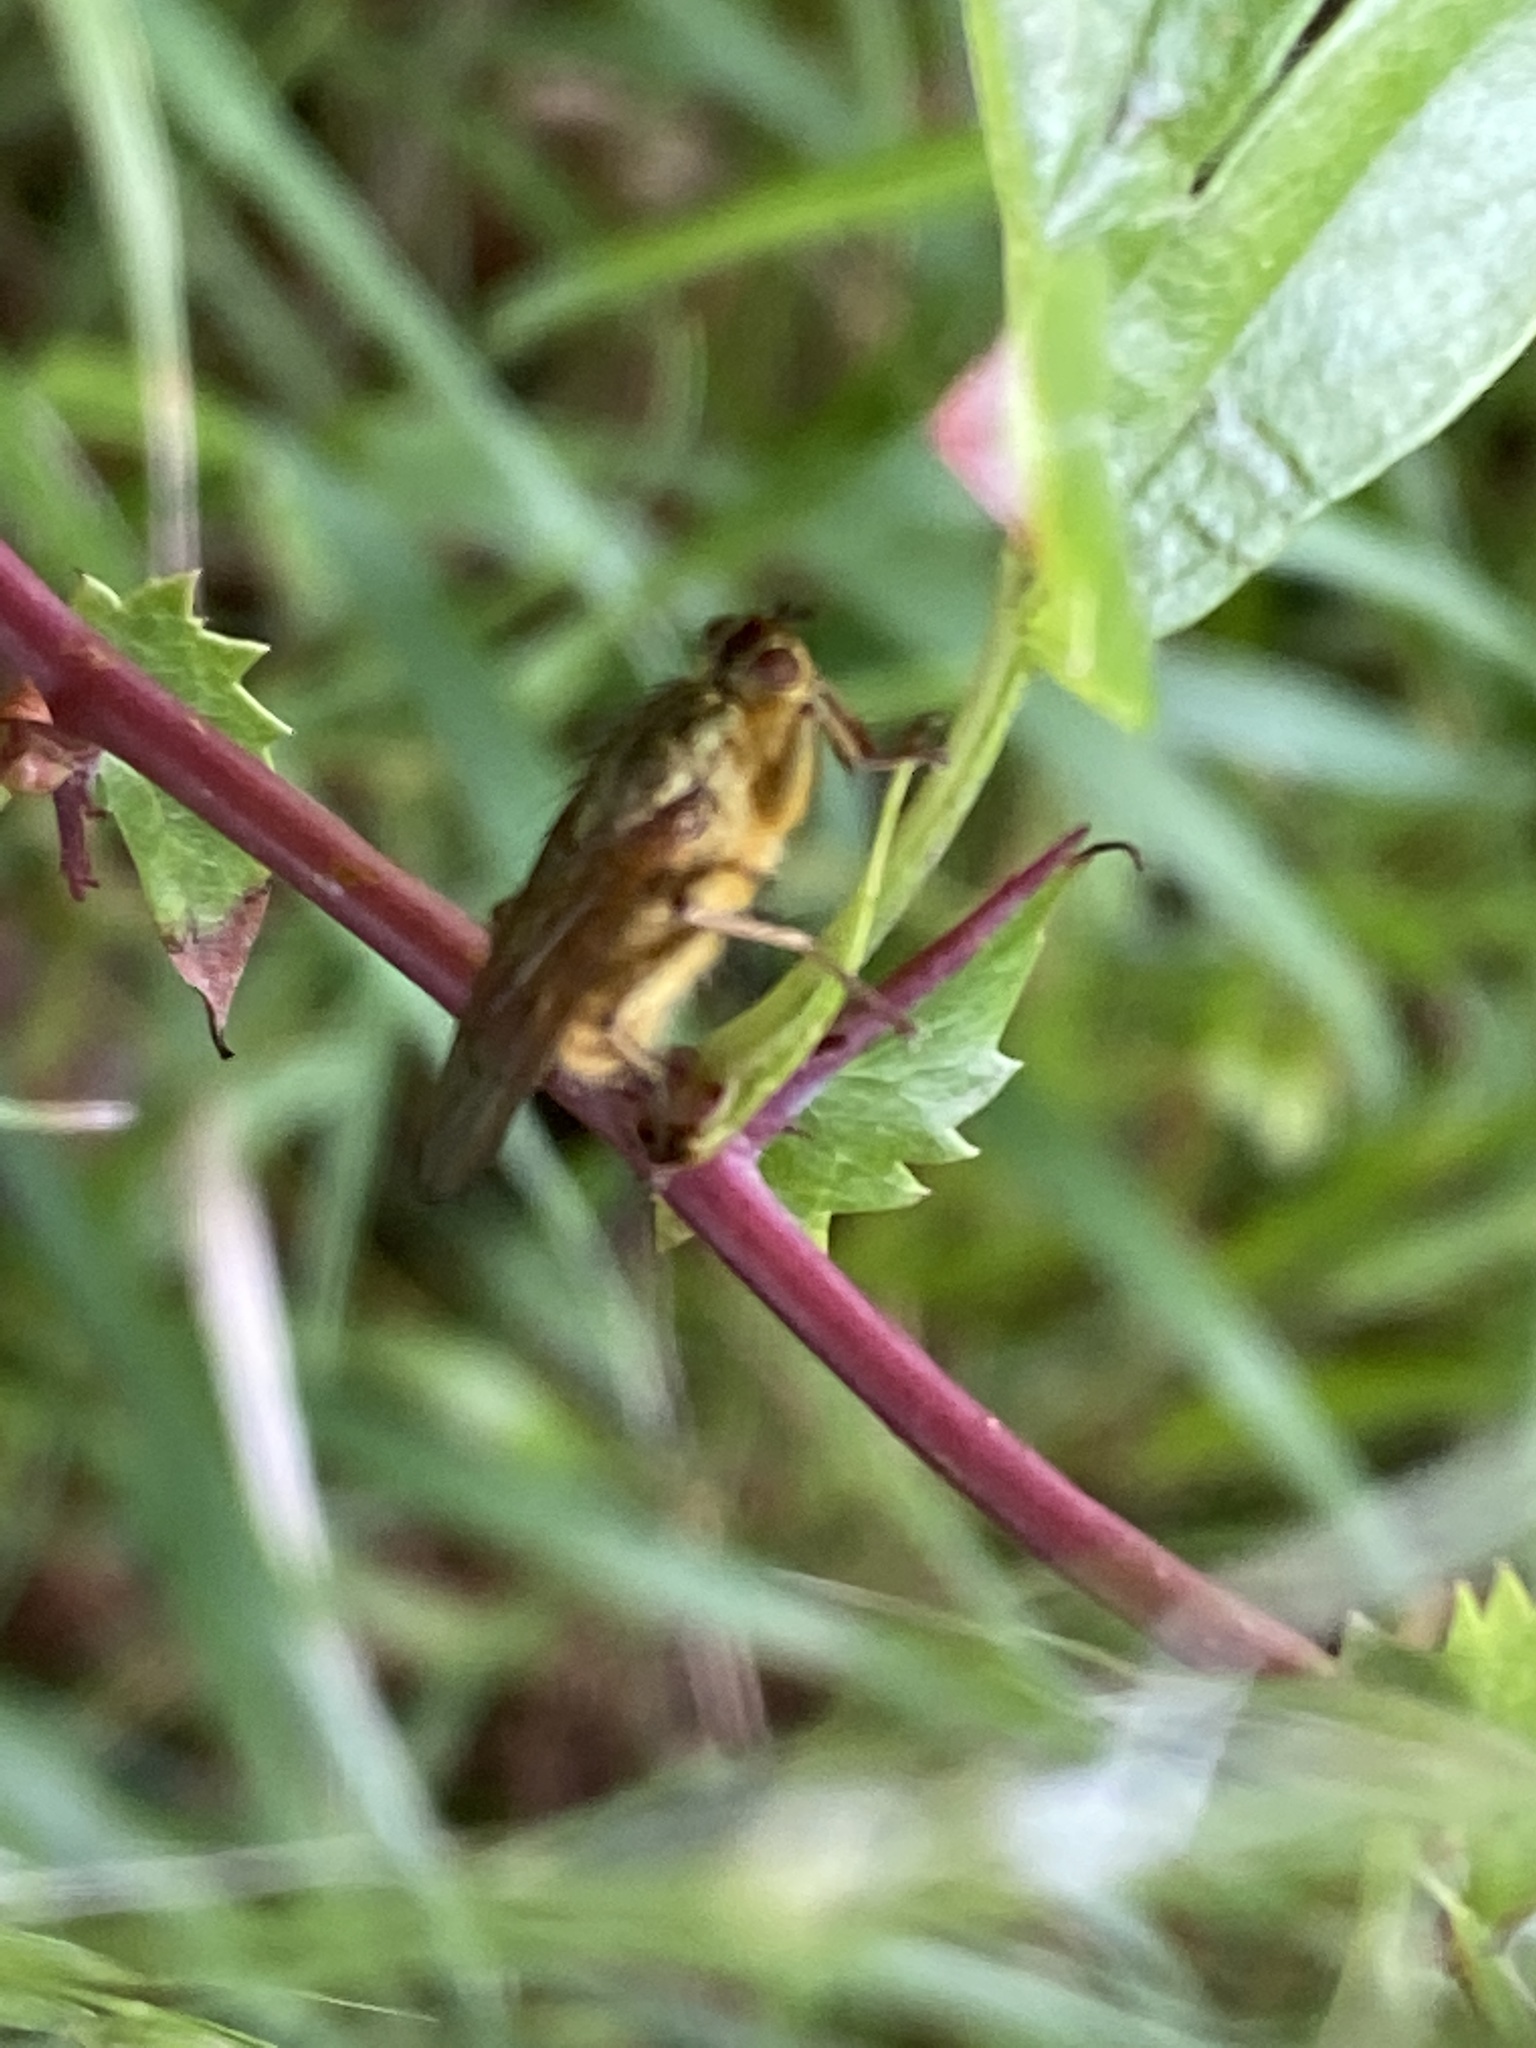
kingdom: Animalia
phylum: Arthropoda
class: Insecta
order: Diptera
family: Scathophagidae
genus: Scathophaga
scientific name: Scathophaga stercoraria
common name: Yellow dung fly
